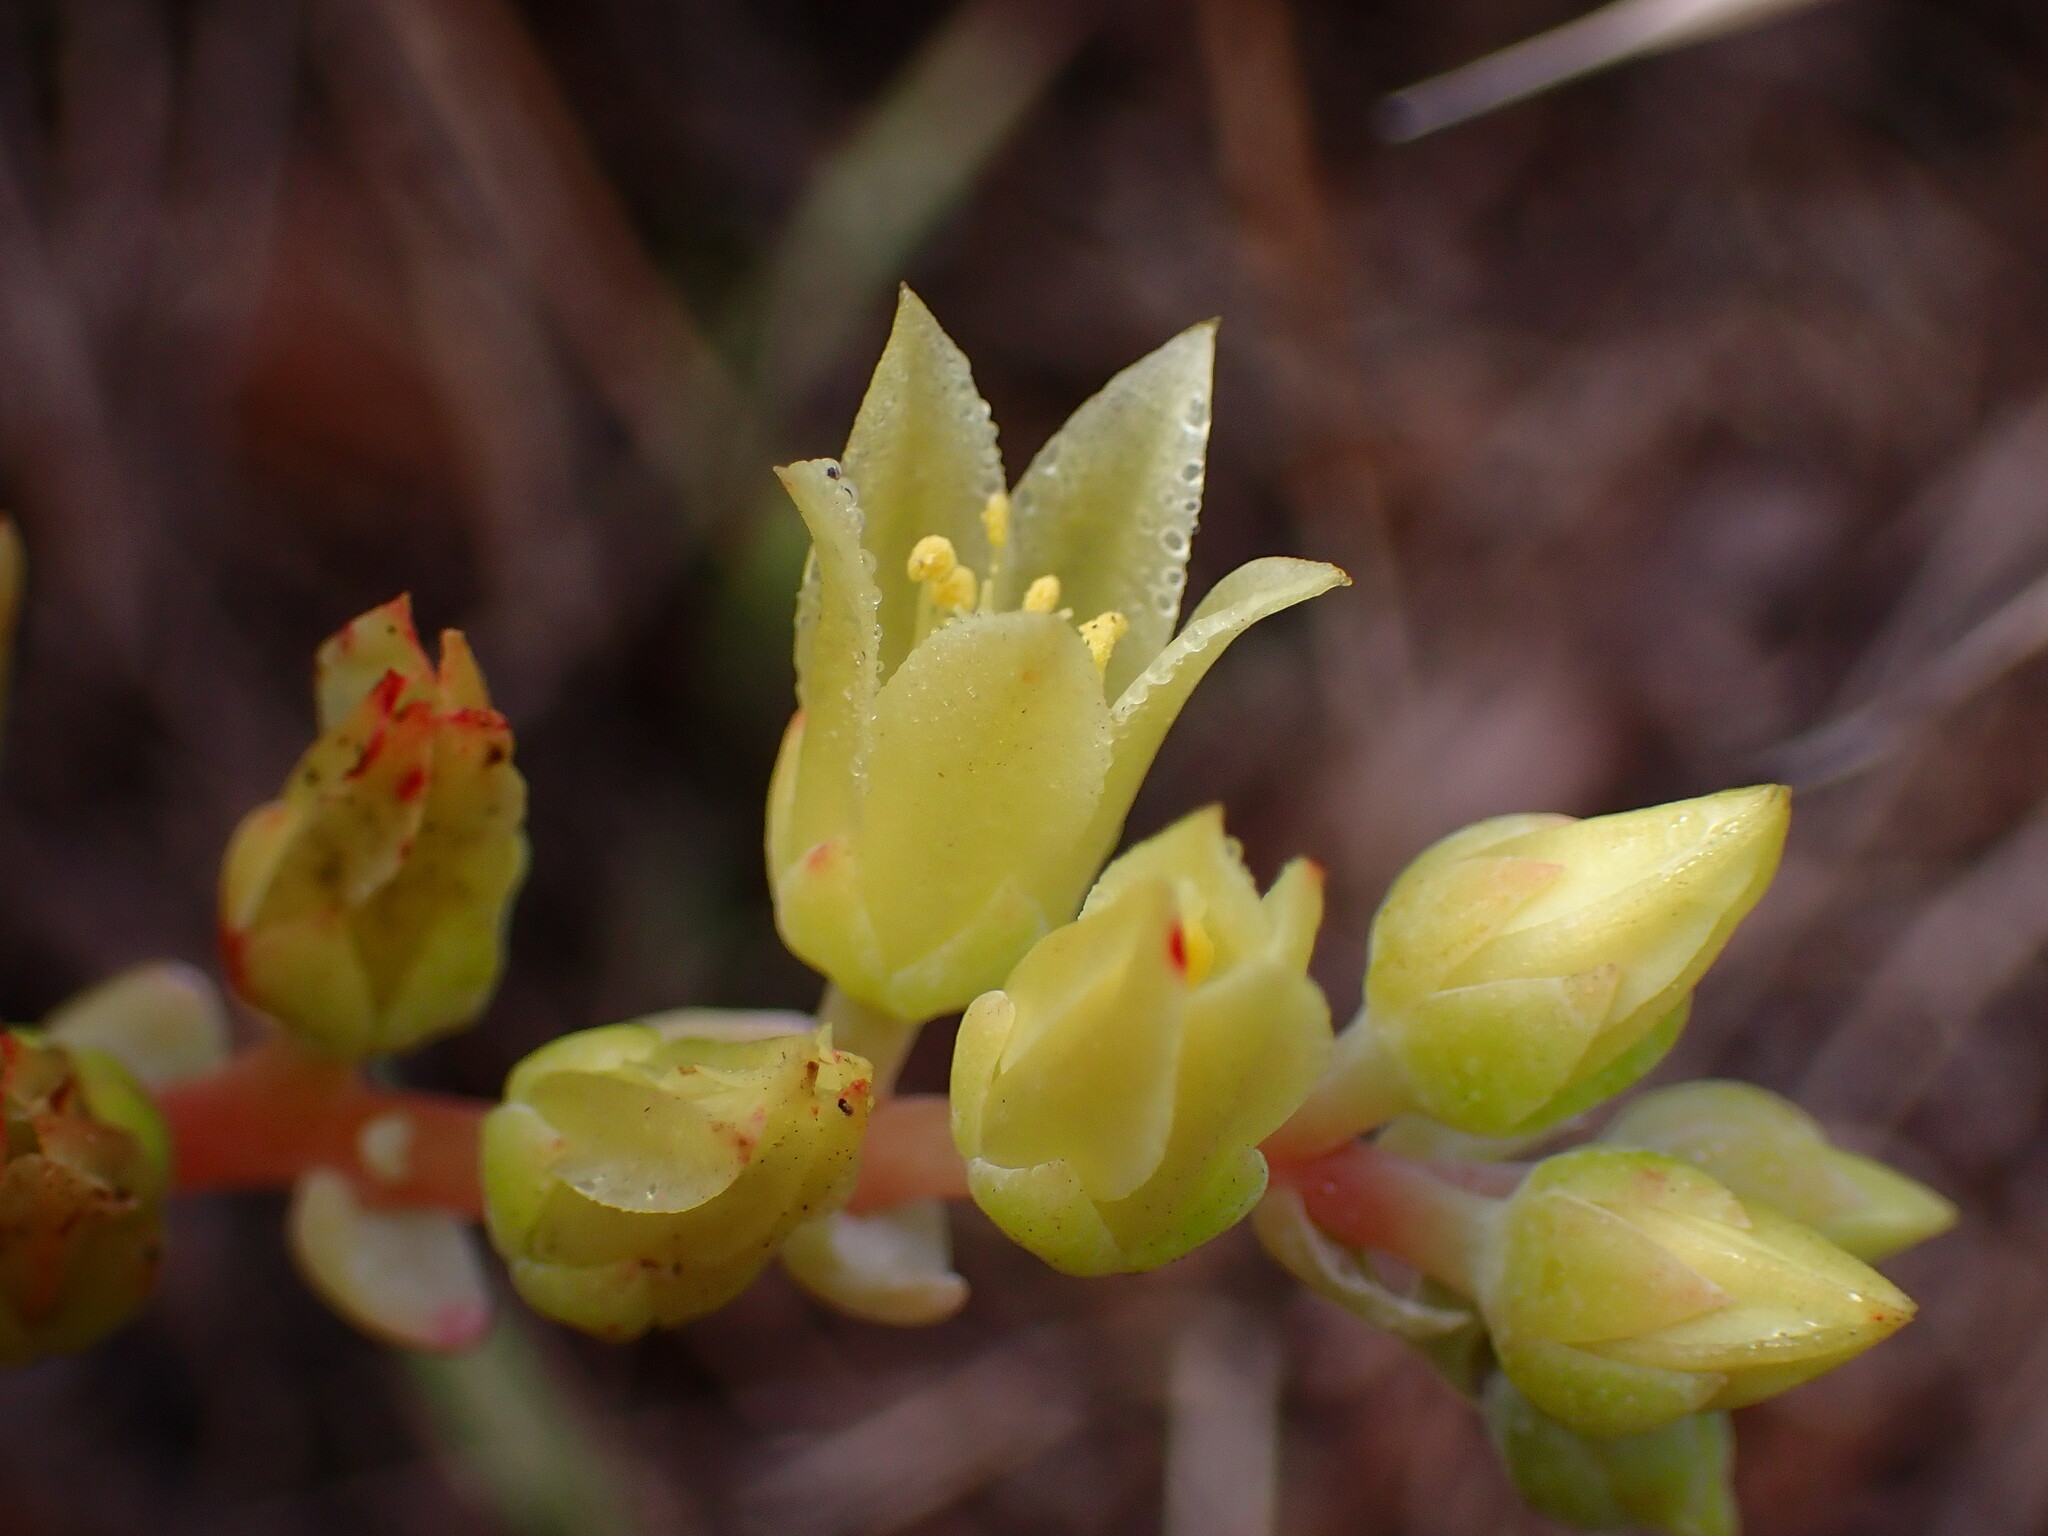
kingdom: Plantae
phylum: Tracheophyta
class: Magnoliopsida
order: Saxifragales
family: Crassulaceae
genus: Dudleya
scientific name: Dudleya farinosa
